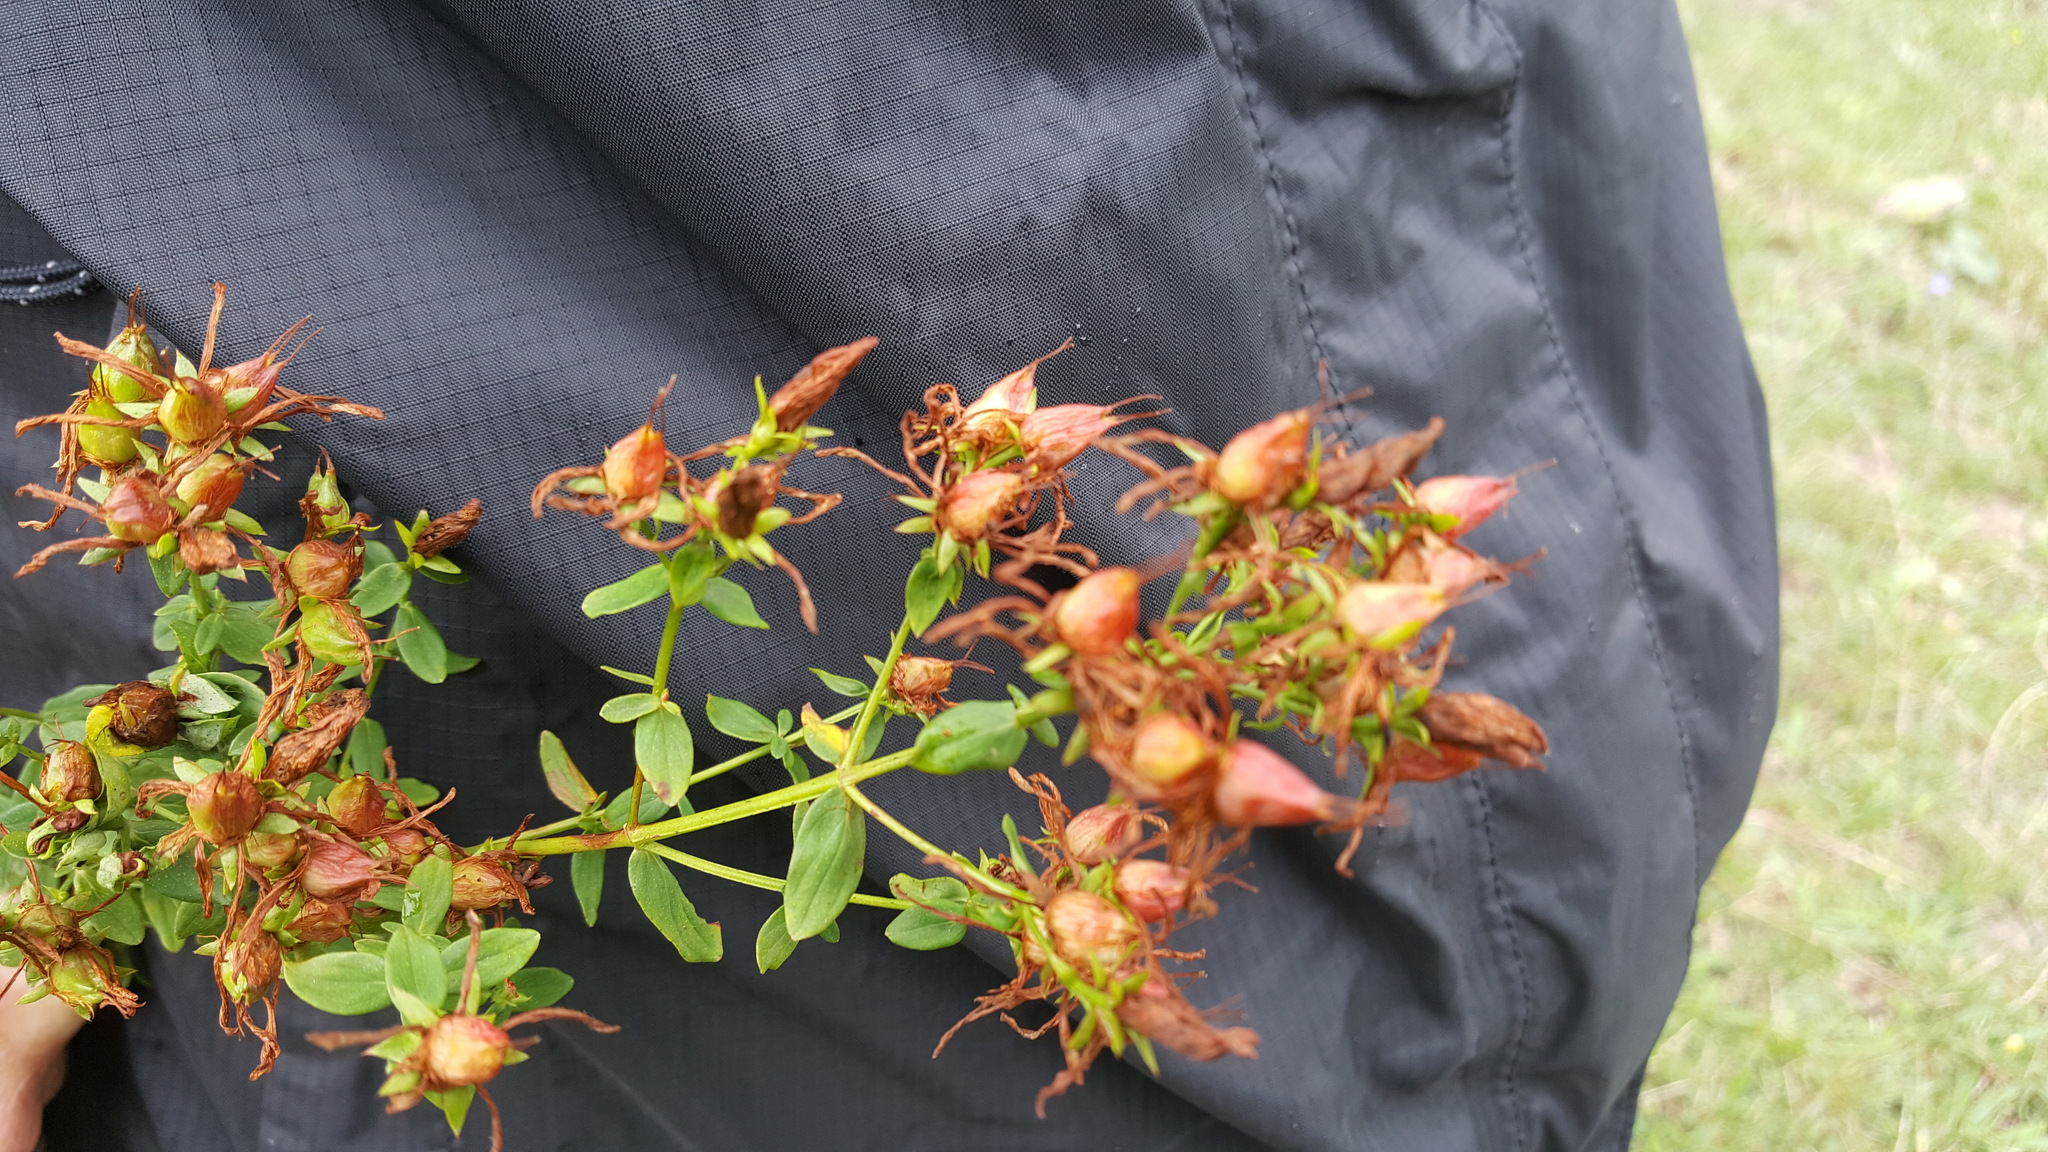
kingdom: Plantae
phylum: Tracheophyta
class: Magnoliopsida
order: Malpighiales
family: Hypericaceae
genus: Hypericum
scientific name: Hypericum perforatum
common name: Common st. johnswort
